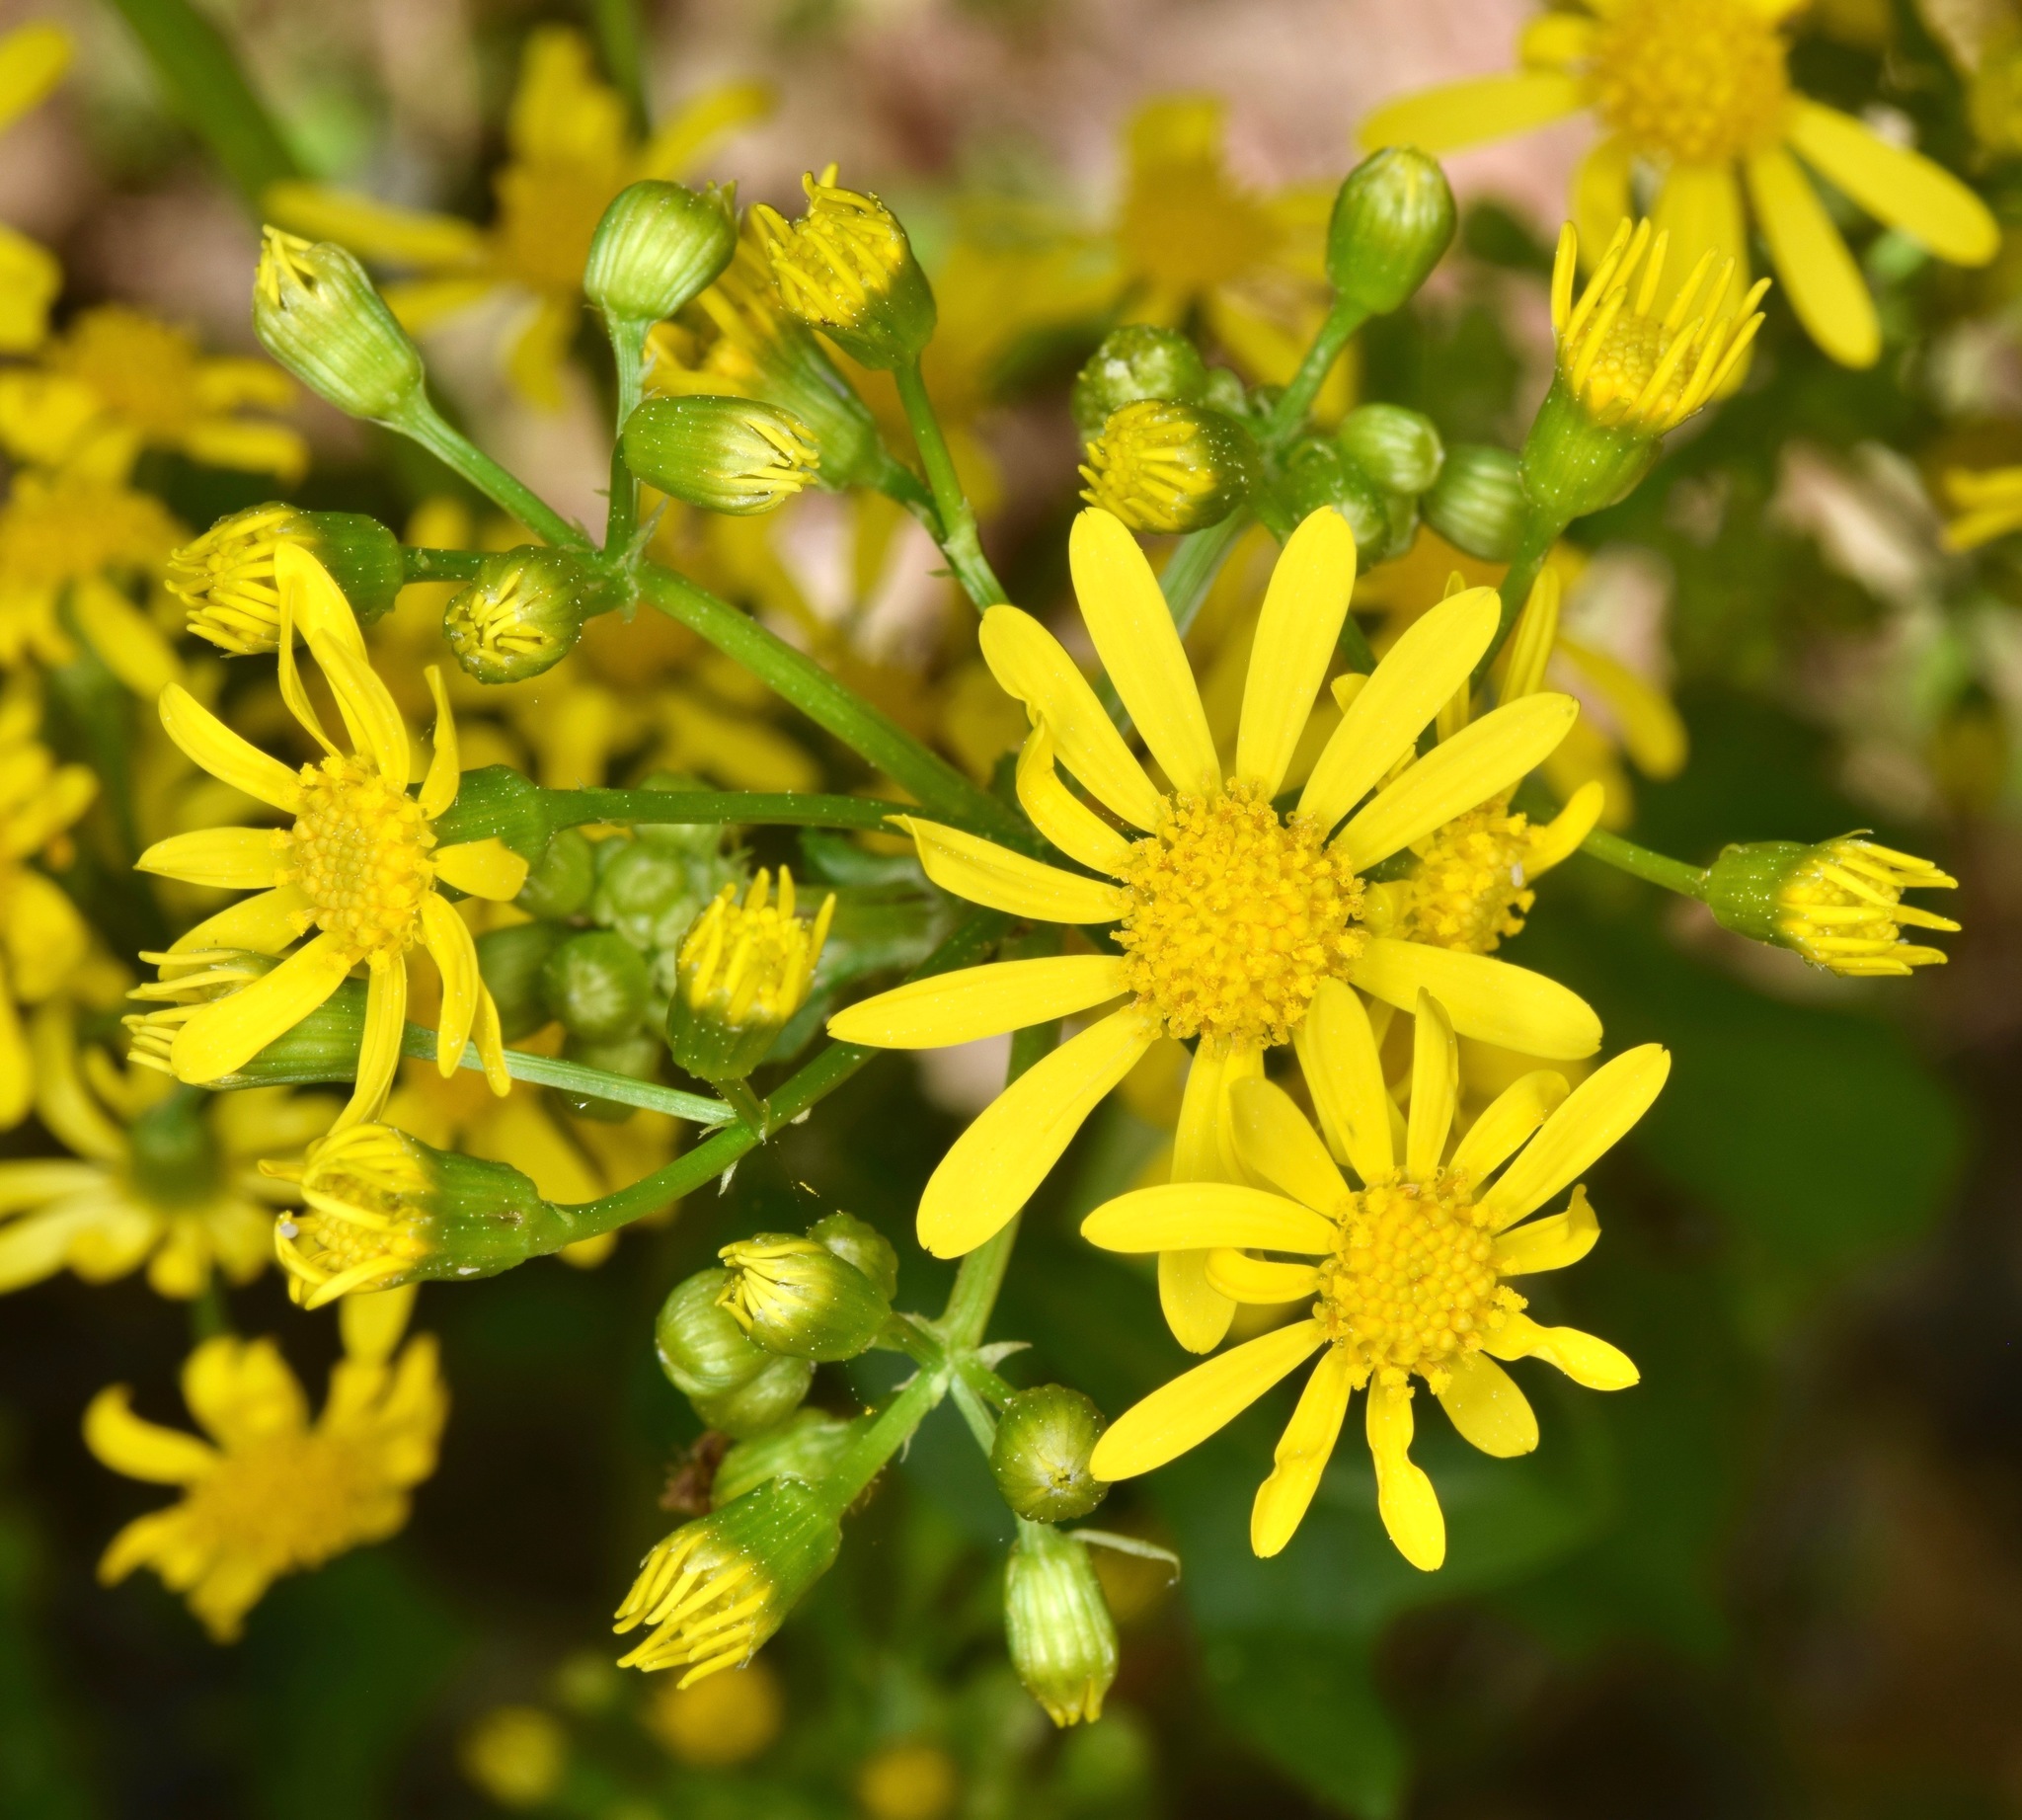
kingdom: Plantae
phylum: Tracheophyta
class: Magnoliopsida
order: Asterales
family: Asteraceae
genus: Packera
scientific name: Packera glabella
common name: Butterweed
